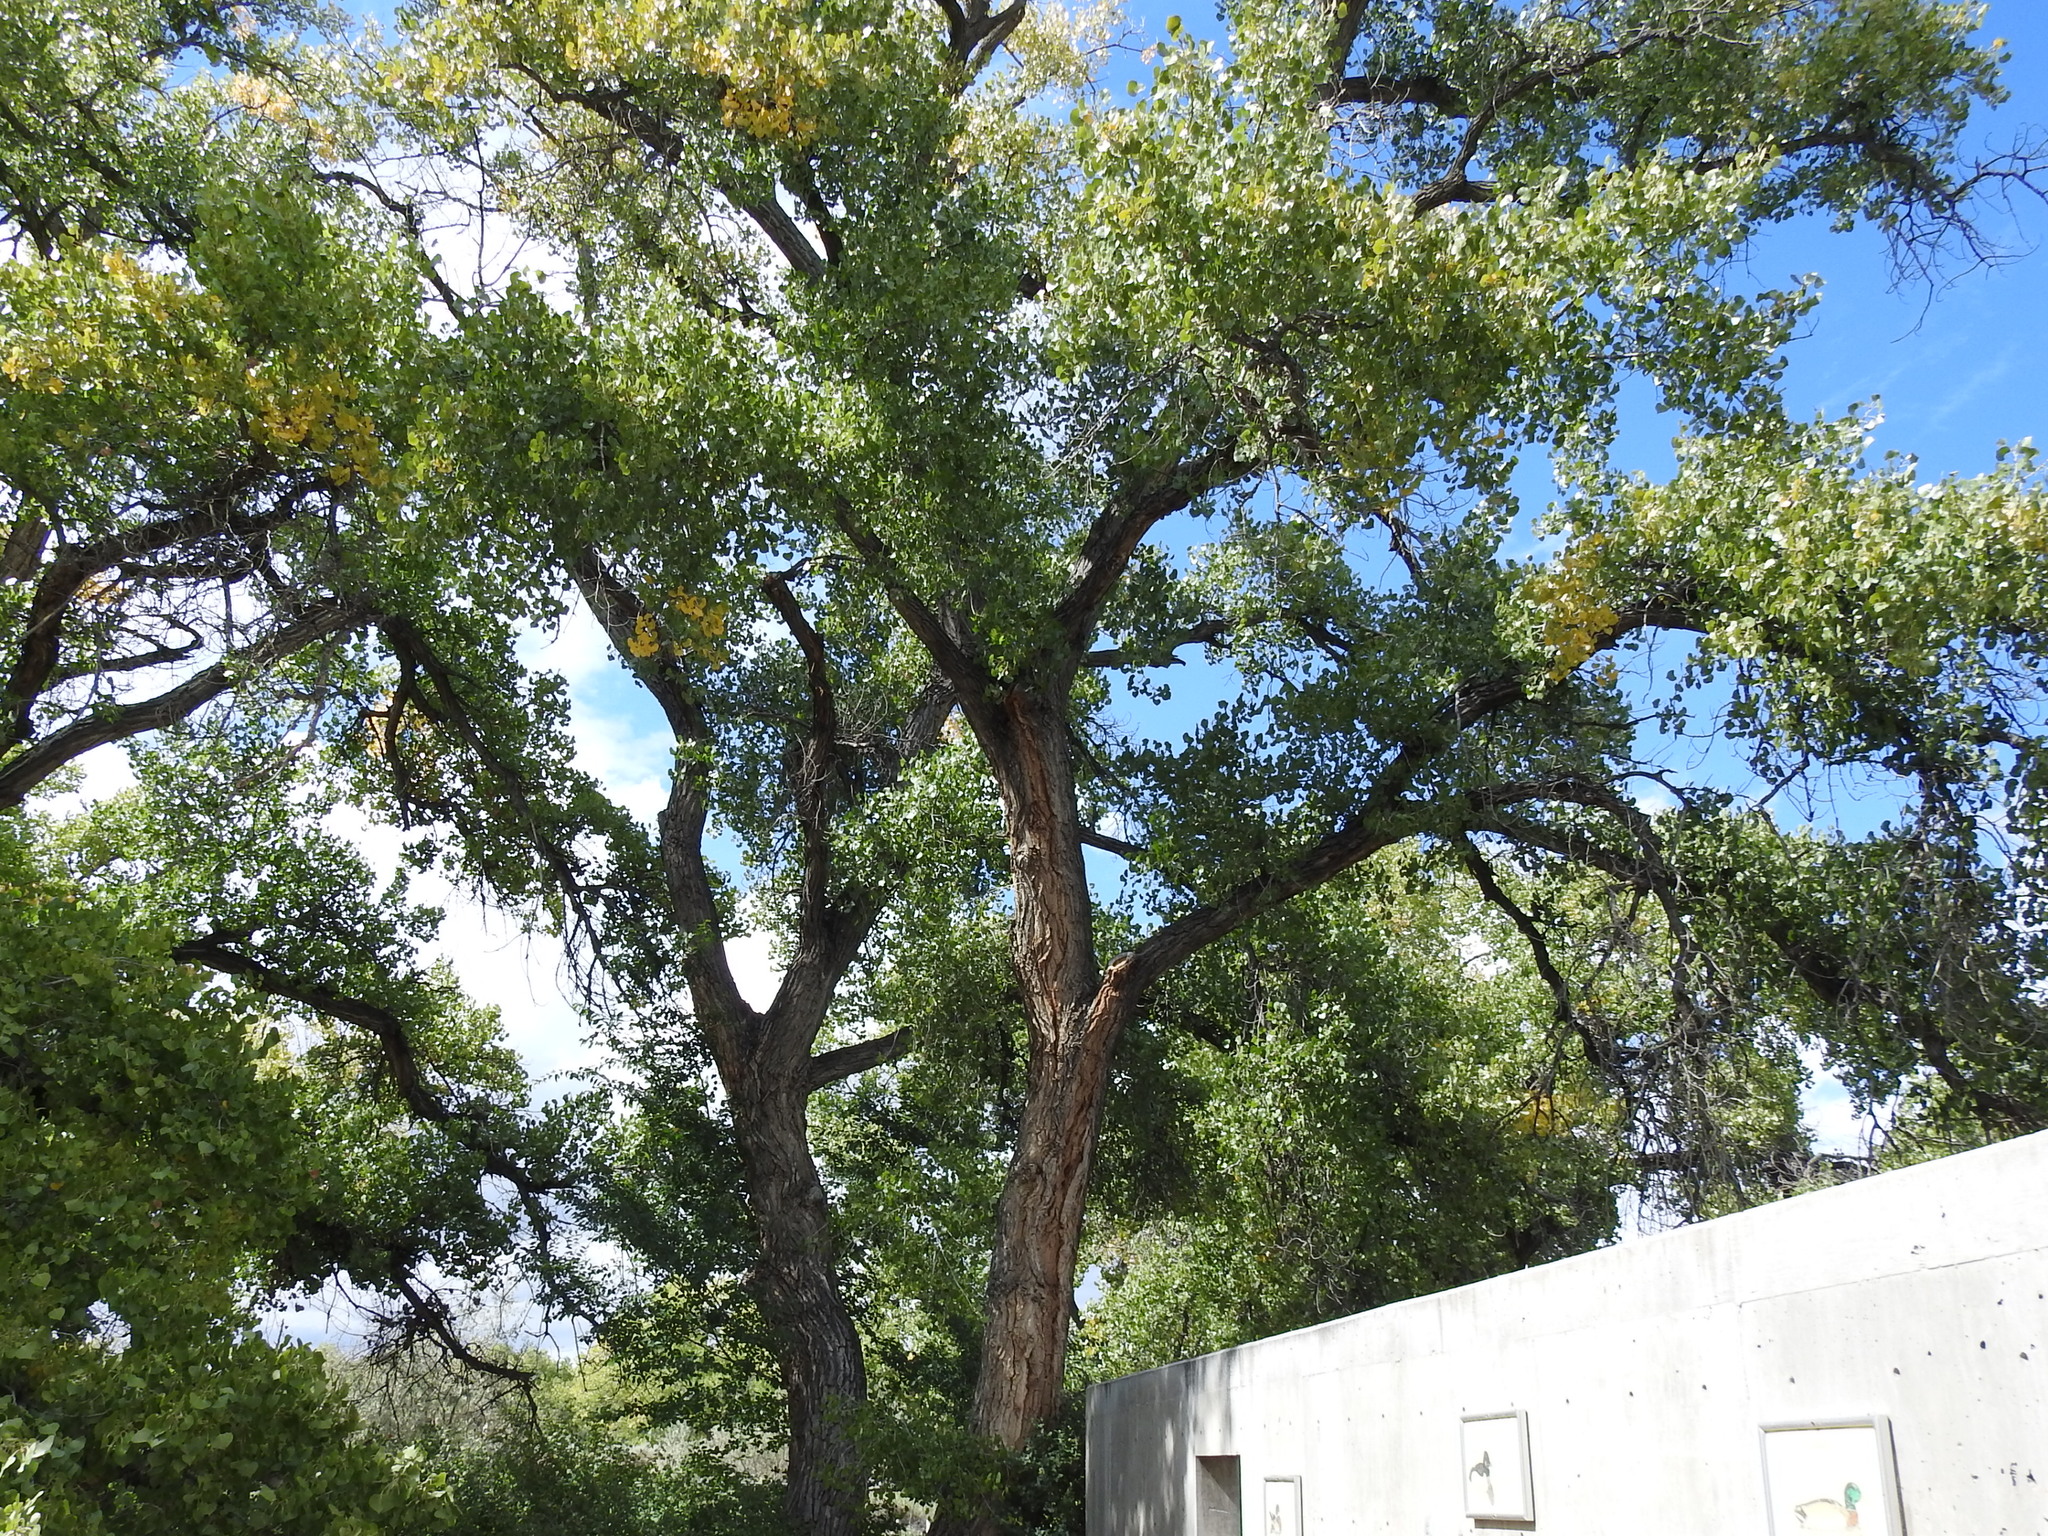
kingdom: Plantae
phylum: Tracheophyta
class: Magnoliopsida
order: Malpighiales
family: Salicaceae
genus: Populus
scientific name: Populus fremontii
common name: Fremont's cottonwood
